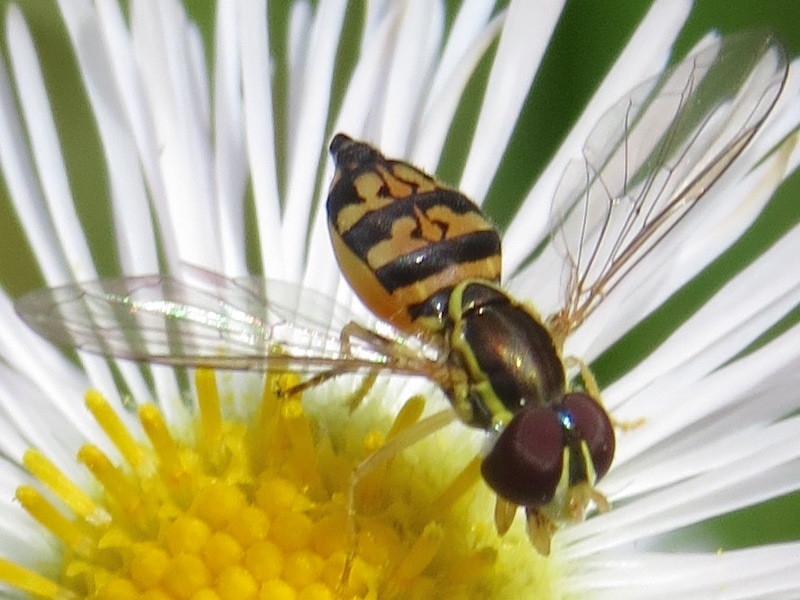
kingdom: Animalia
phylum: Arthropoda
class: Insecta
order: Diptera
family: Syrphidae
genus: Toxomerus
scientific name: Toxomerus geminatus
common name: Eastern calligrapher
